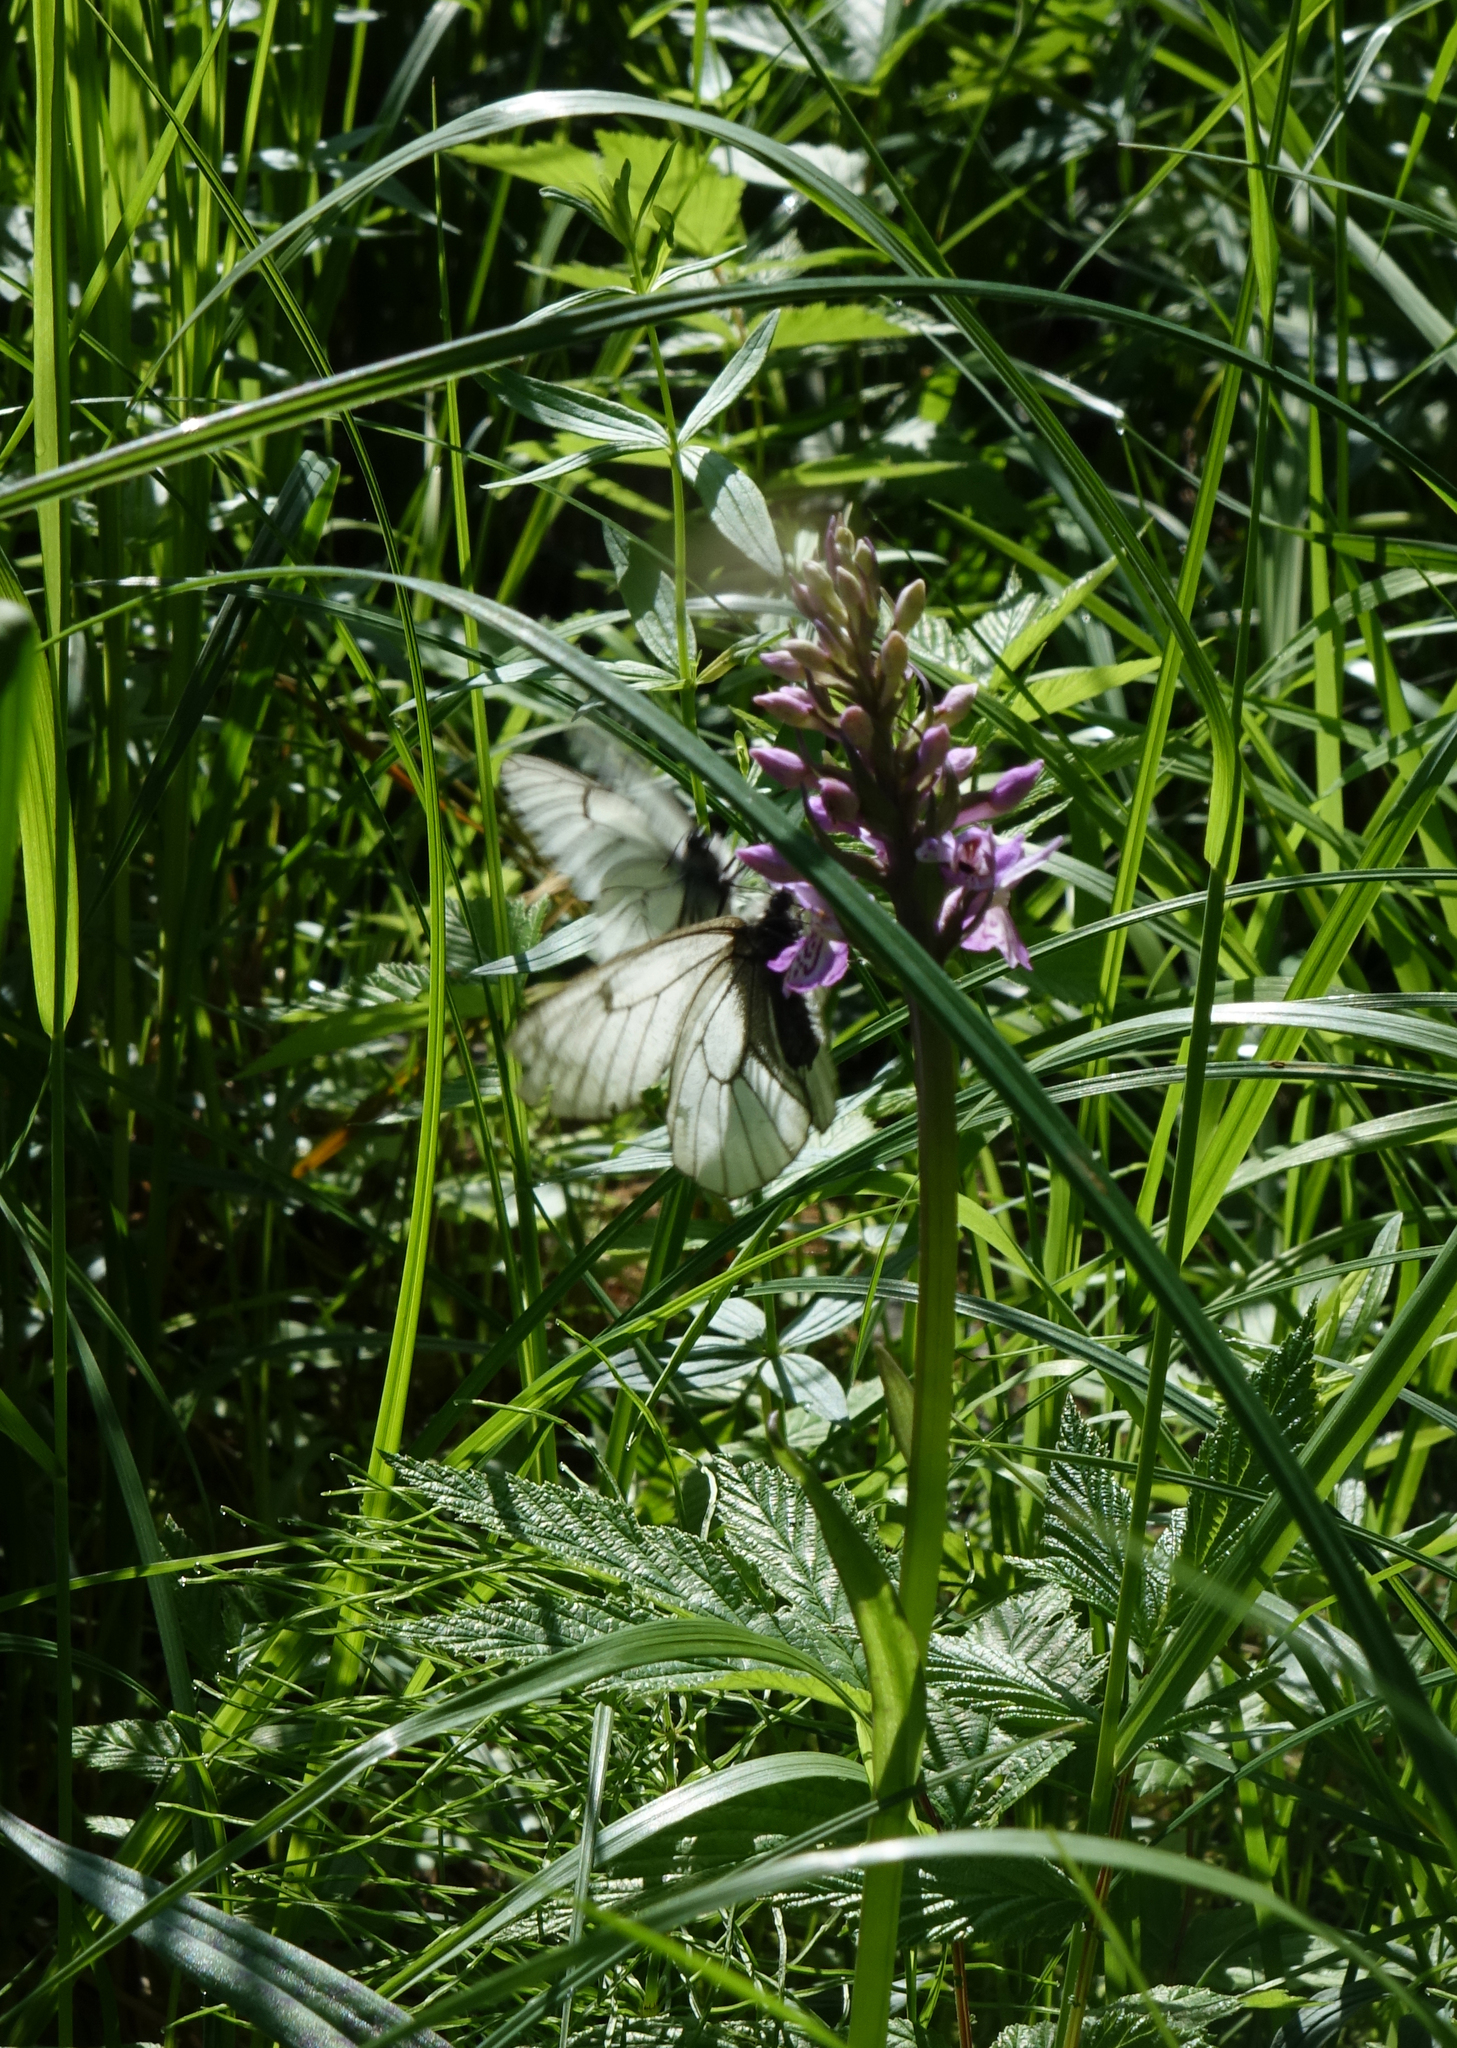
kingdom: Animalia
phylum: Arthropoda
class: Insecta
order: Lepidoptera
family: Papilionidae
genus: Parnassius
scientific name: Parnassius stubbendorfii
